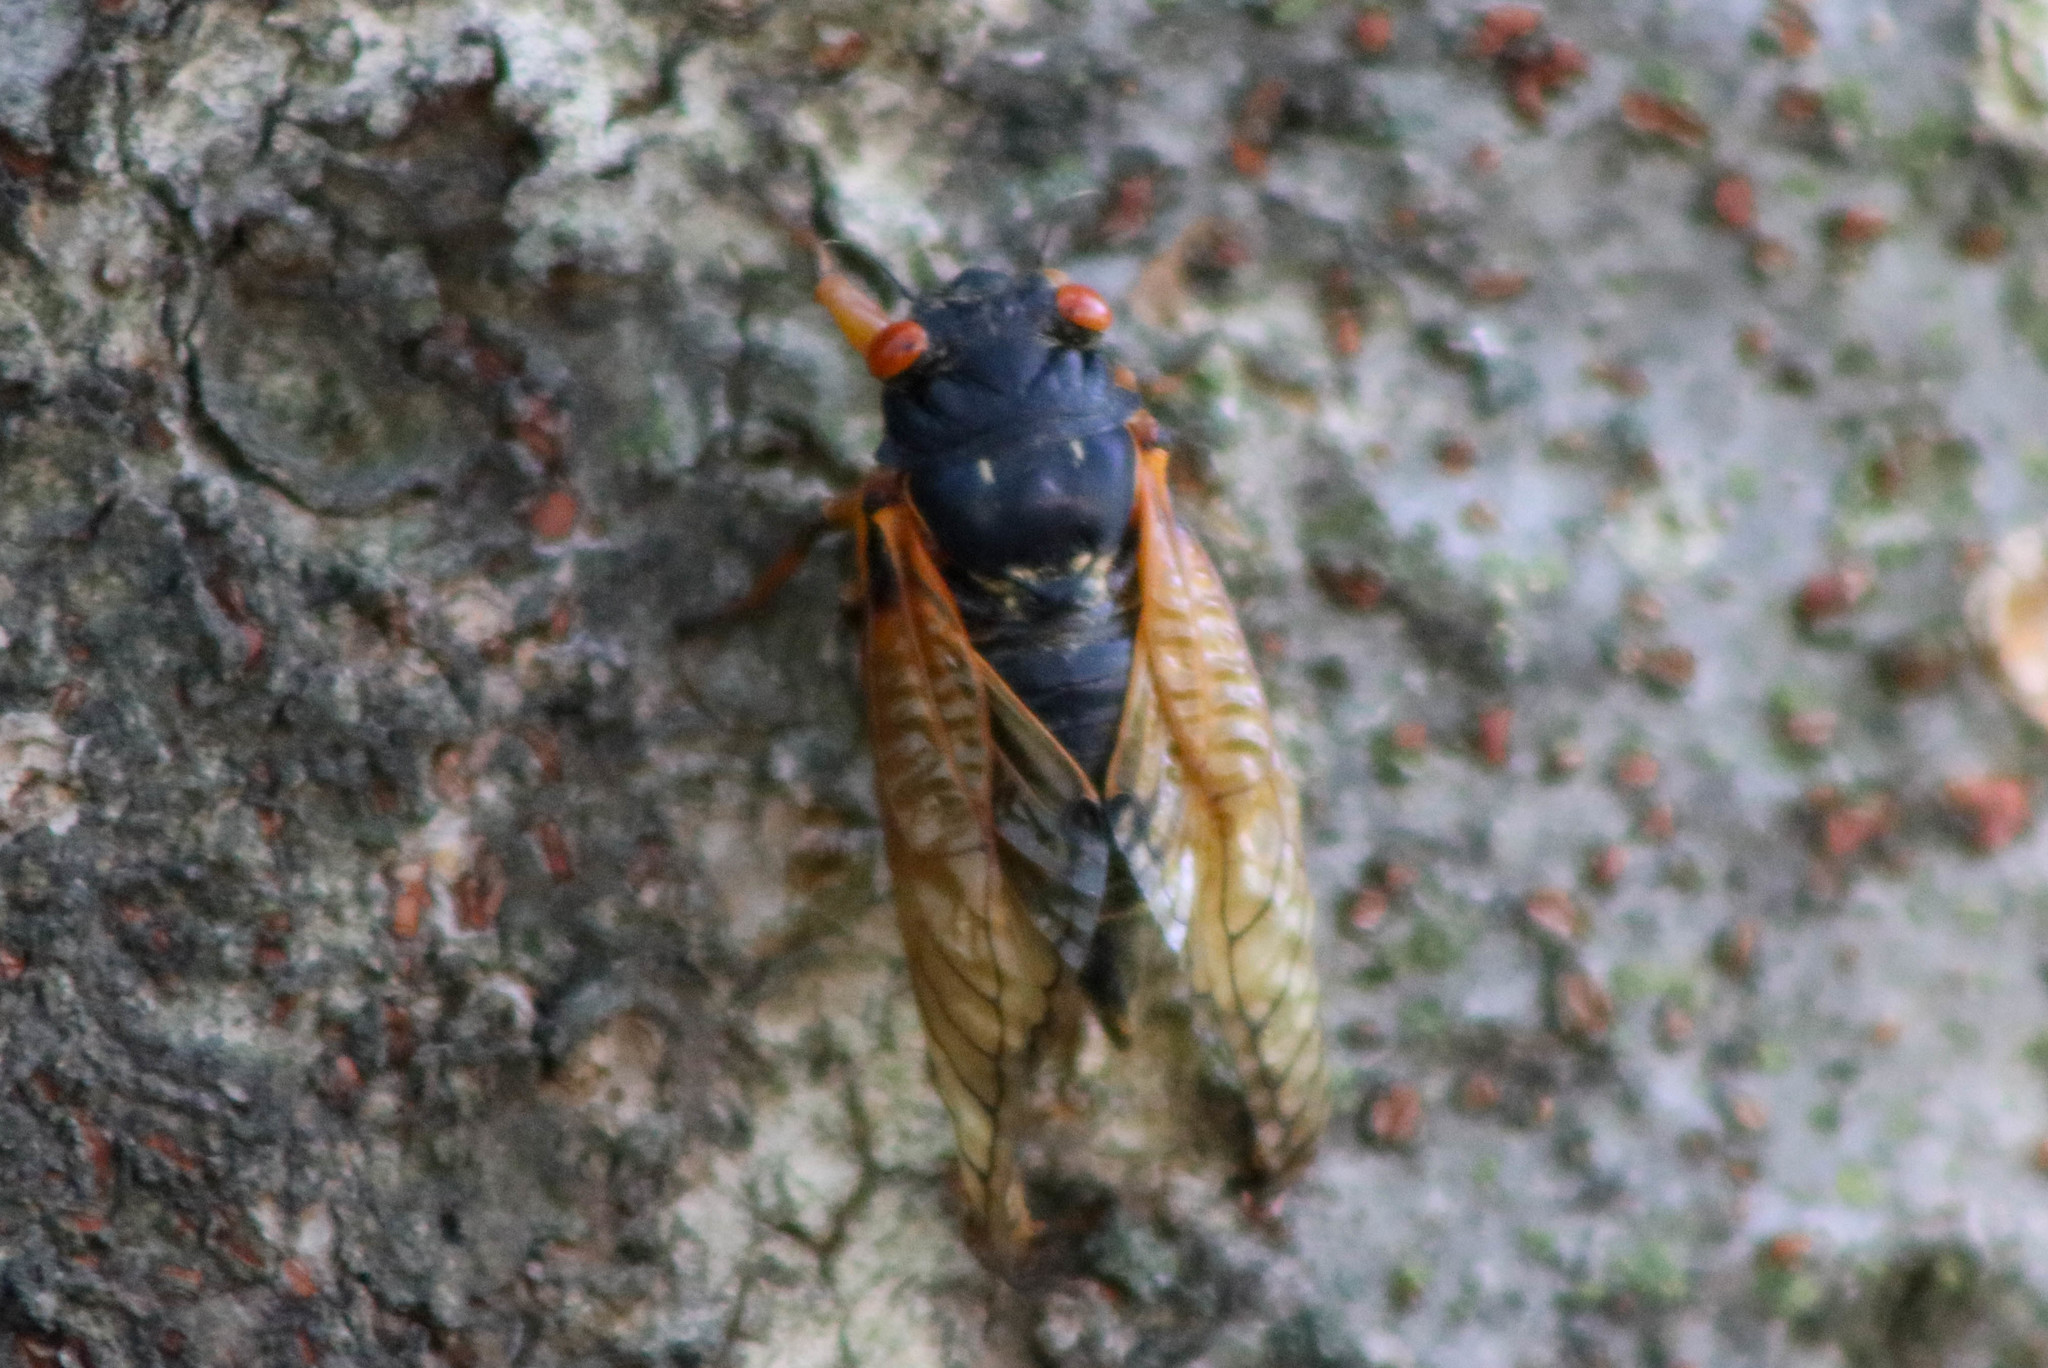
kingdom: Animalia
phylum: Arthropoda
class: Insecta
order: Hemiptera
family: Cicadidae
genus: Magicicada
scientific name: Magicicada
